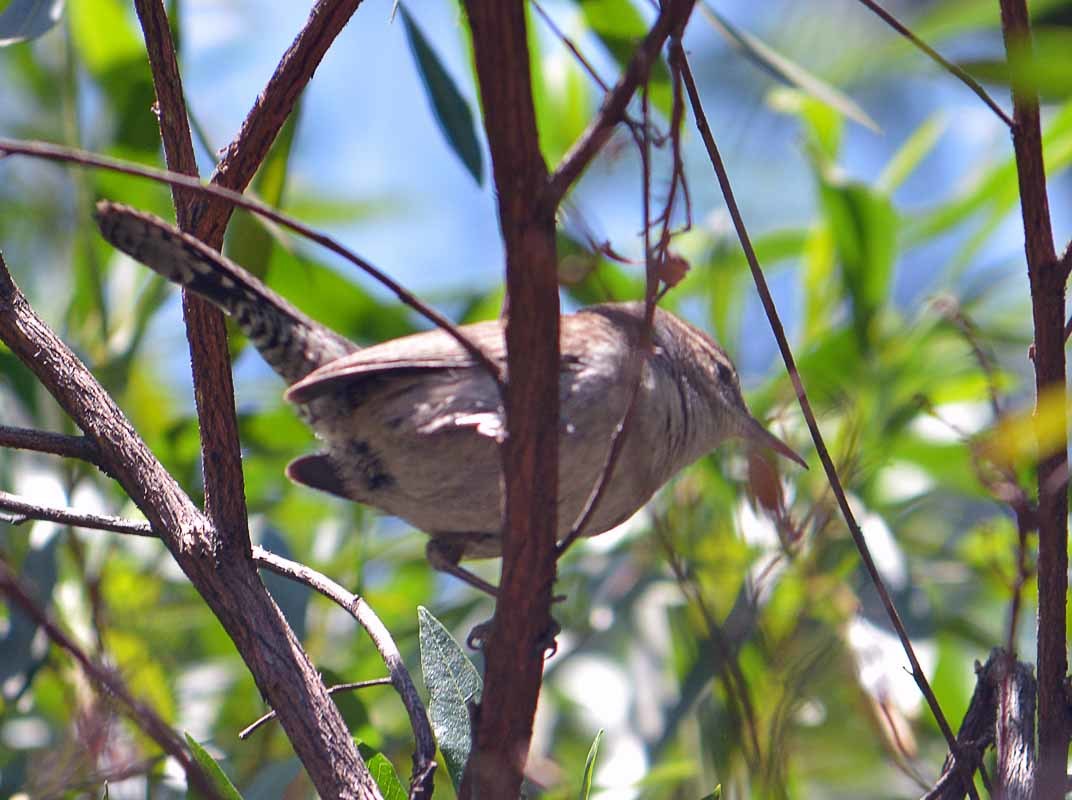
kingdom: Animalia
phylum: Chordata
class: Aves
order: Passeriformes
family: Troglodytidae
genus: Thryomanes
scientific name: Thryomanes bewickii
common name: Bewick's wren
